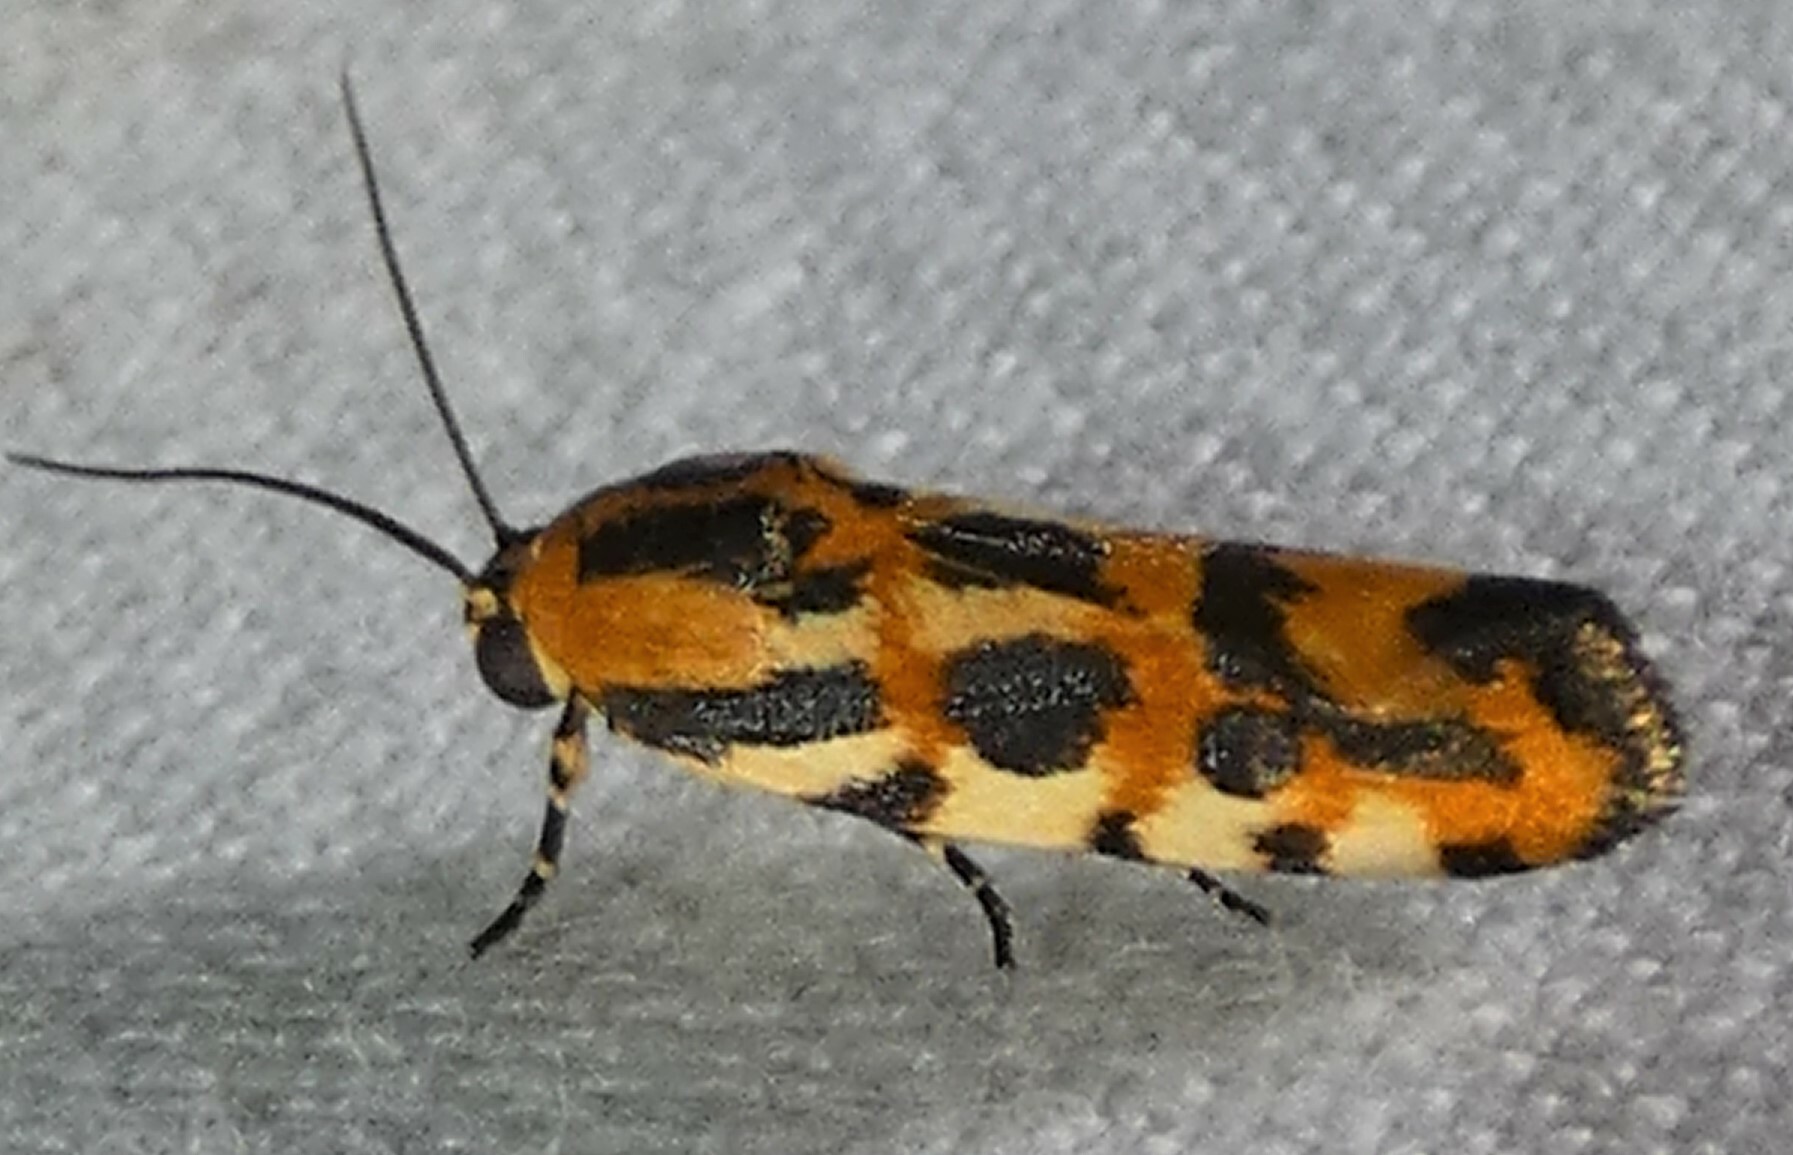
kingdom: Animalia
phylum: Arthropoda
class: Insecta
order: Lepidoptera
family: Noctuidae
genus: Acontia
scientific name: Acontia leo
